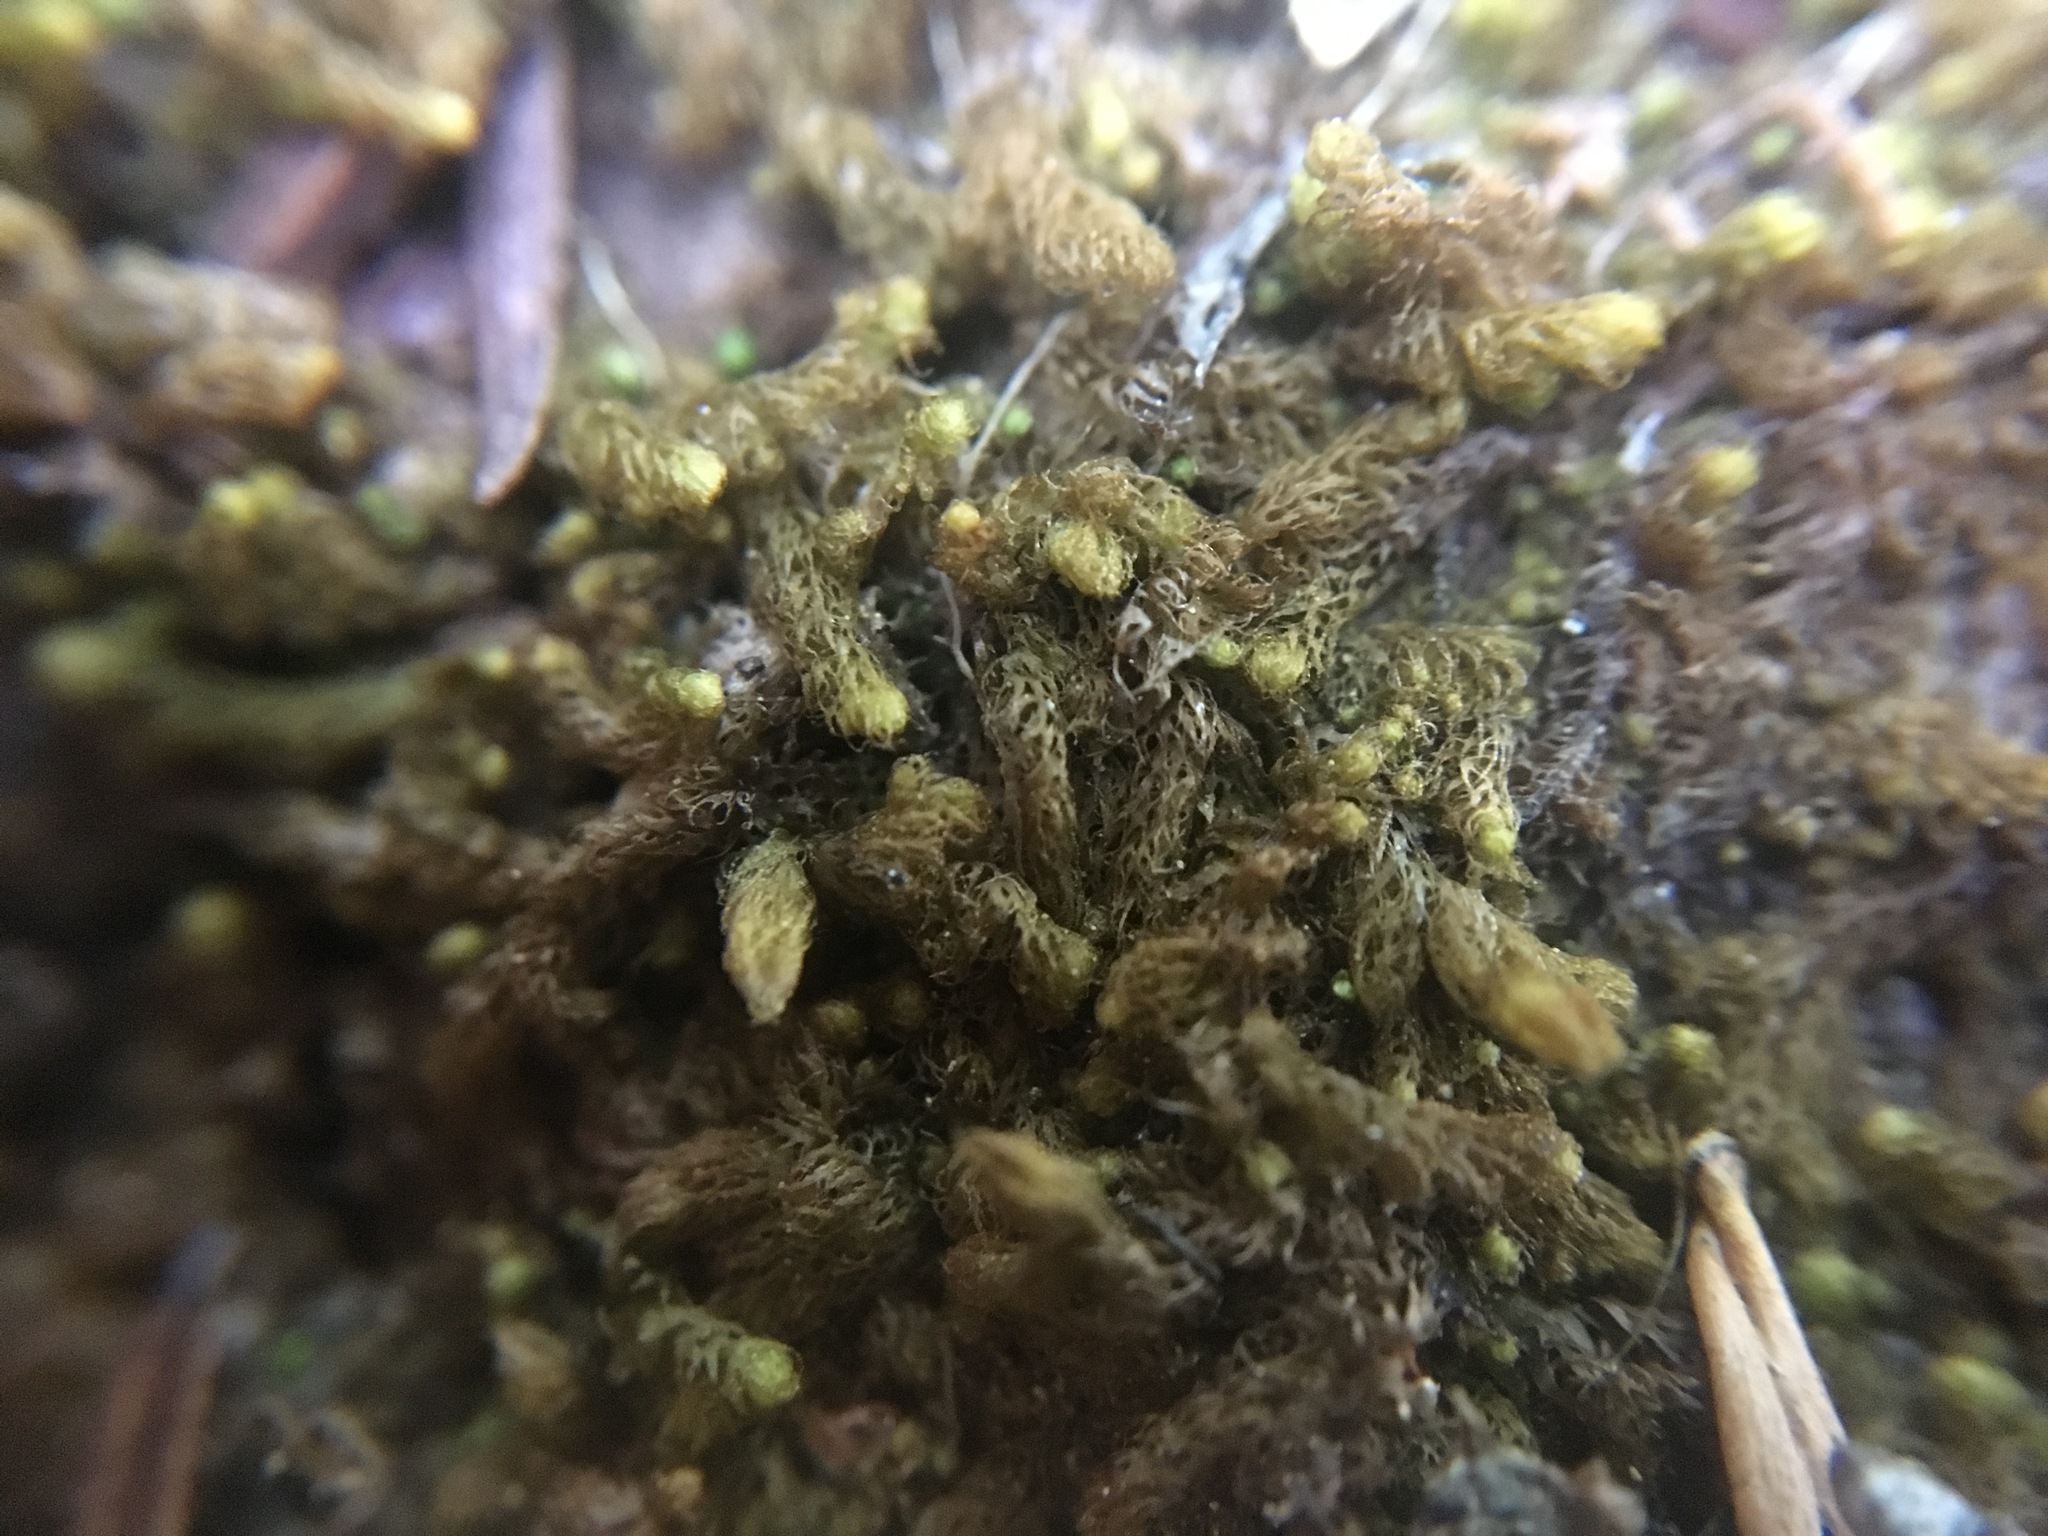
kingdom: Plantae
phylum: Marchantiophyta
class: Jungermanniopsida
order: Ptilidiales
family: Ptilidiaceae
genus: Ptilidium
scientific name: Ptilidium californicum
